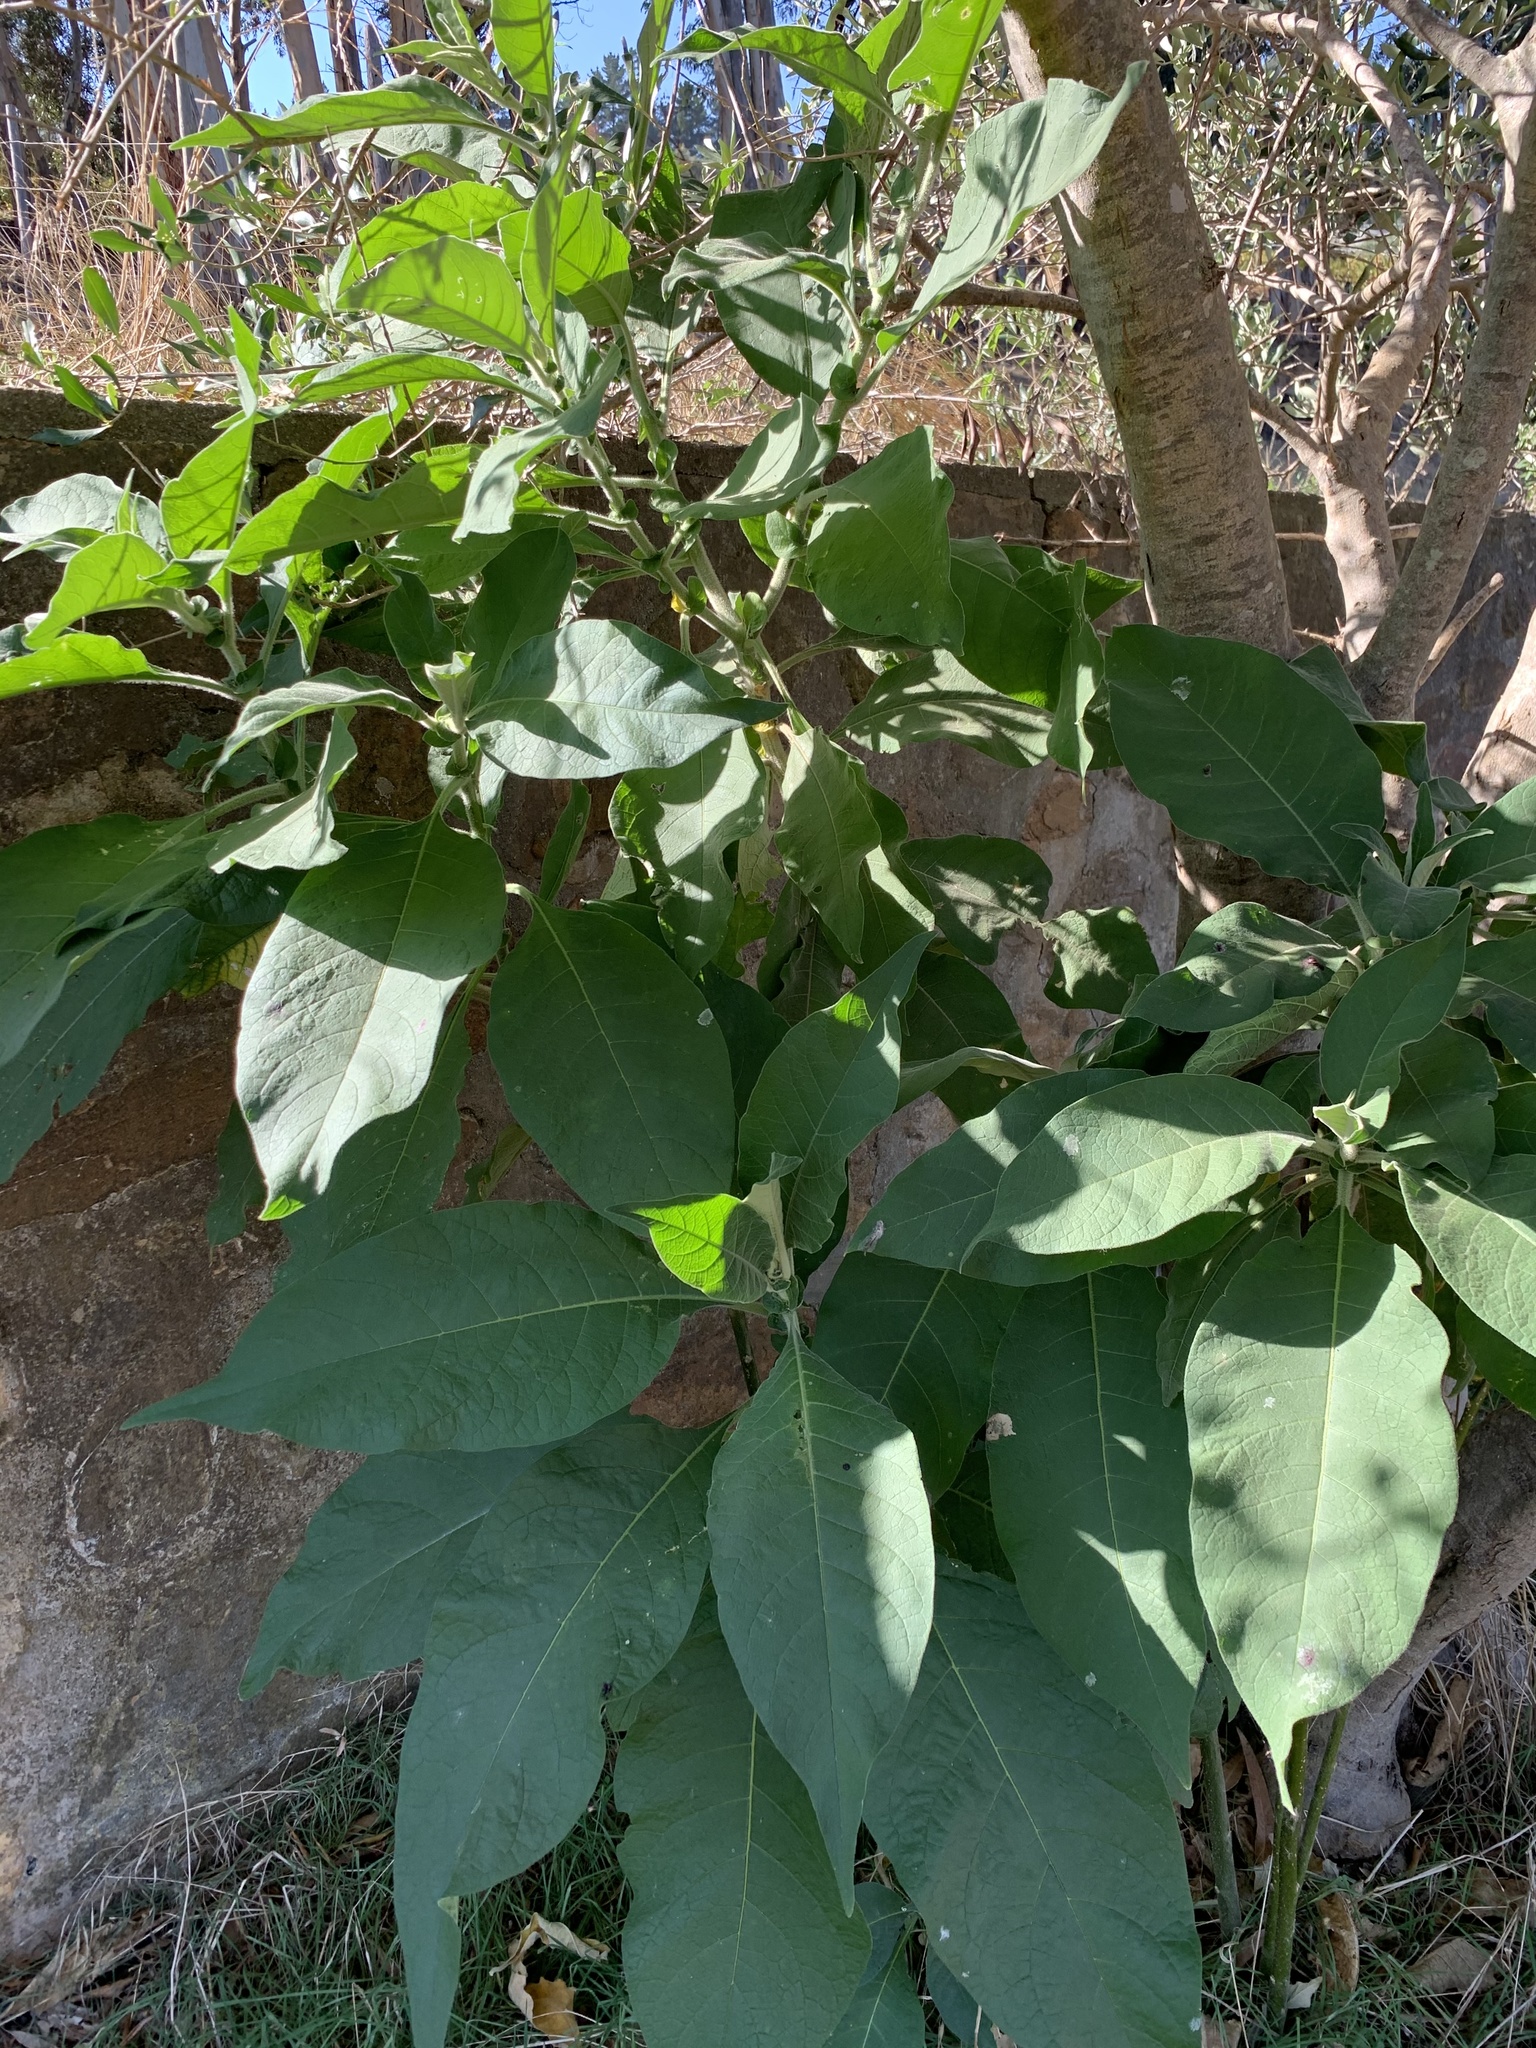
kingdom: Plantae
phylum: Tracheophyta
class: Magnoliopsida
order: Solanales
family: Solanaceae
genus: Solanum
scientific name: Solanum mauritianum
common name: Earleaf nightshade
